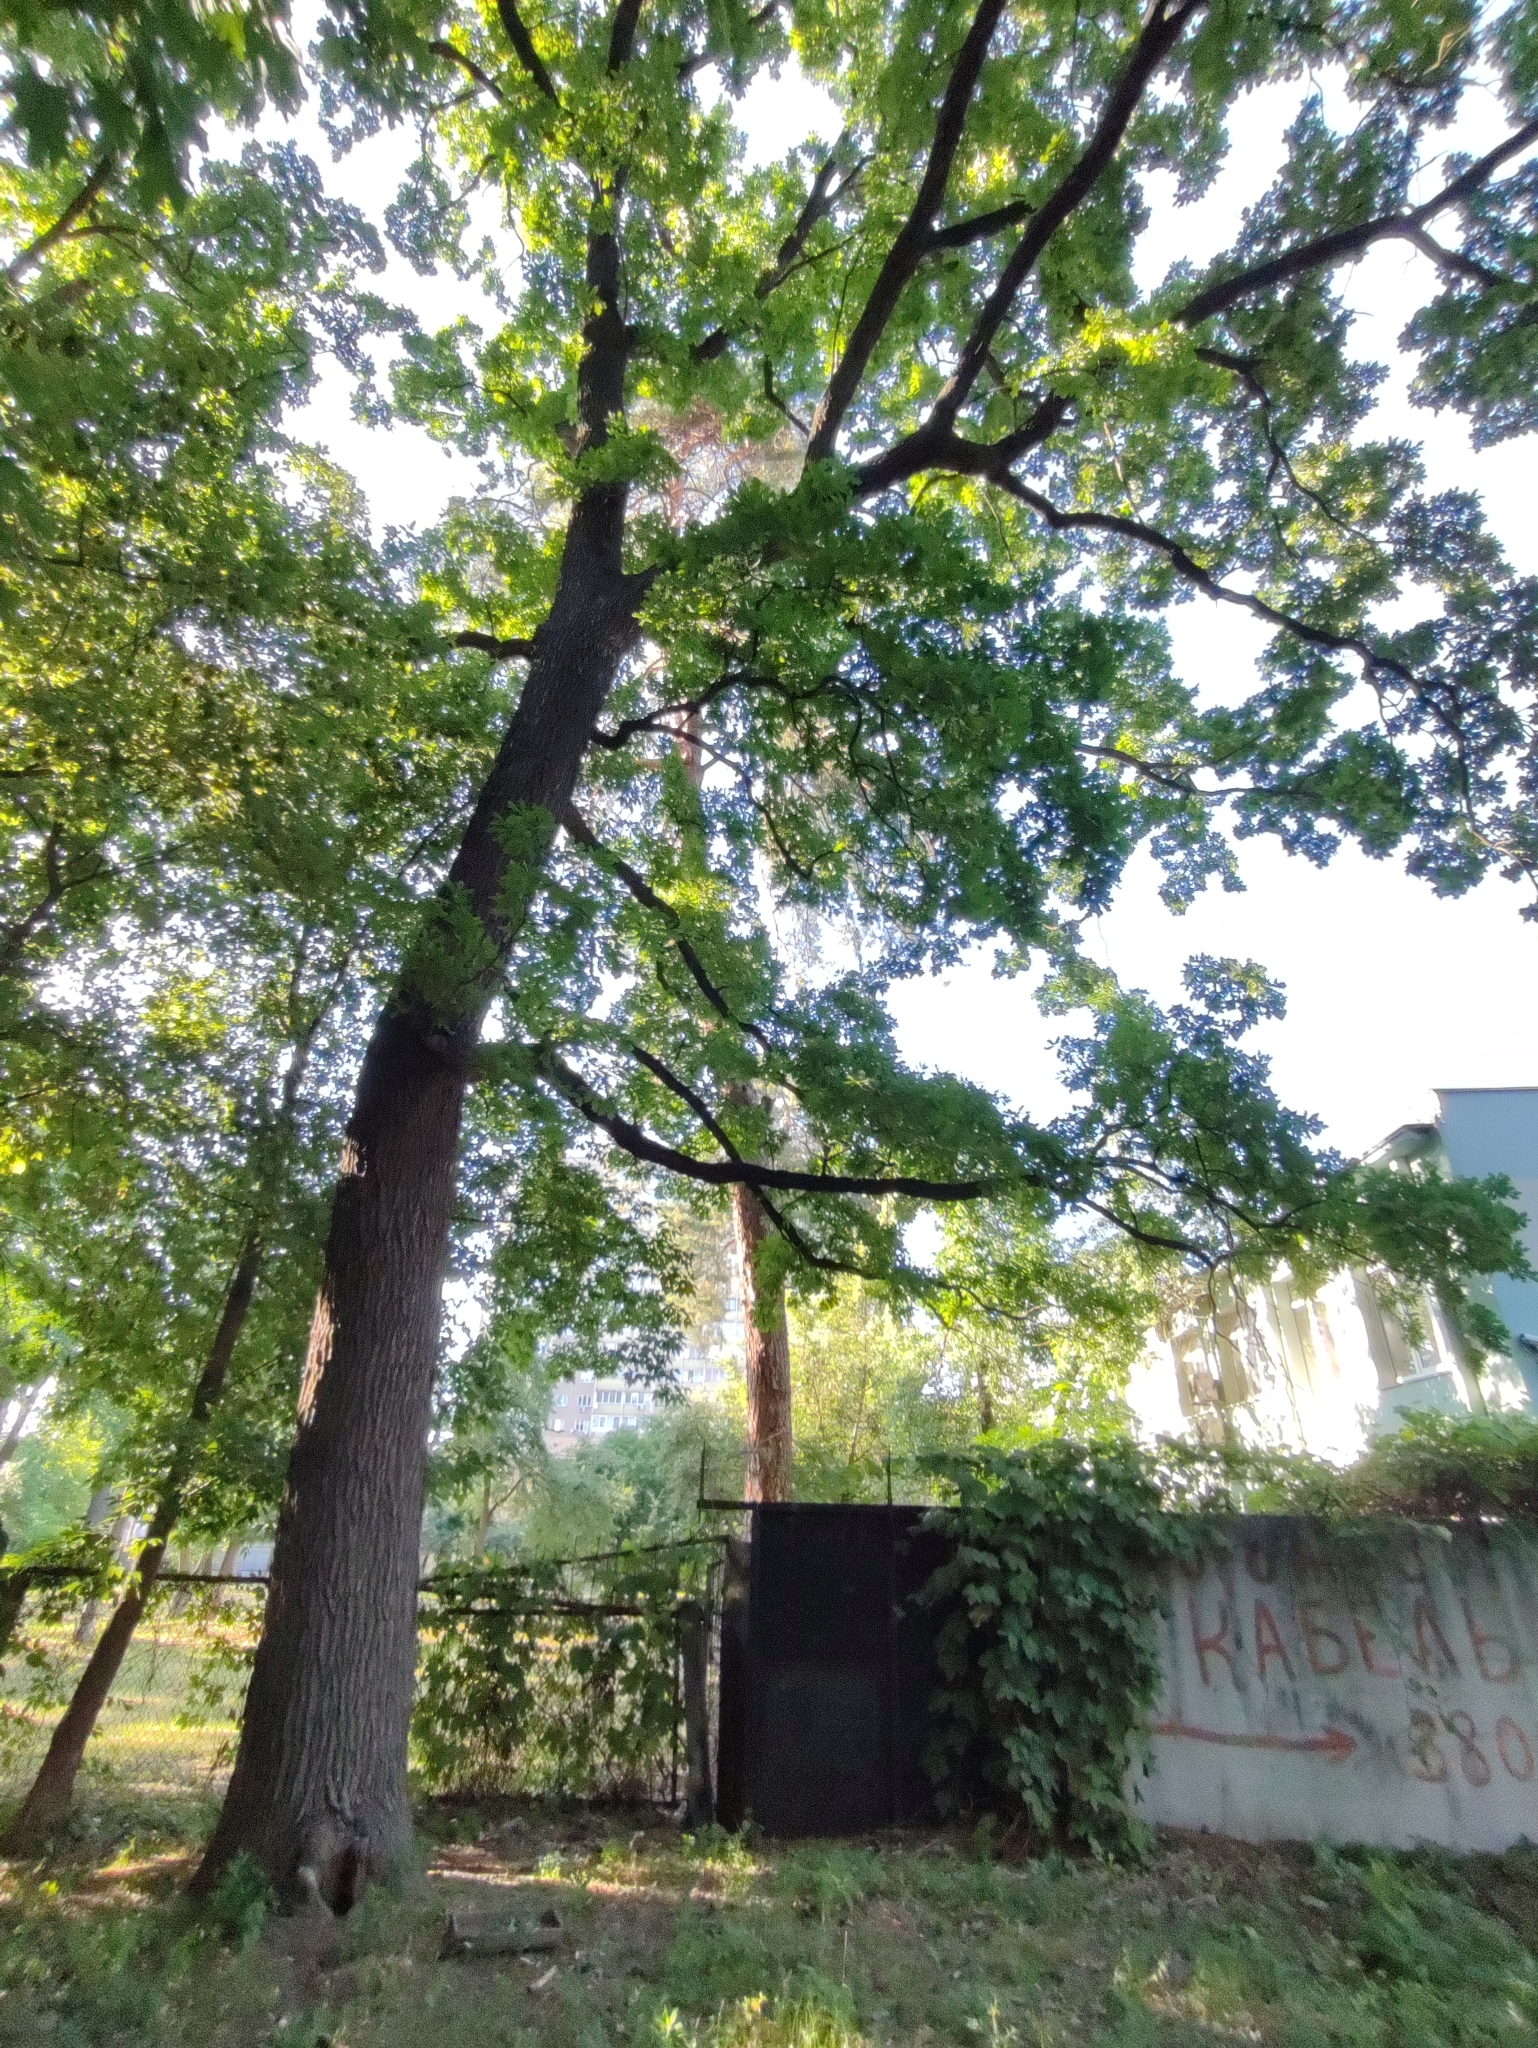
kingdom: Plantae
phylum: Tracheophyta
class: Magnoliopsida
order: Fagales
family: Fagaceae
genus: Quercus
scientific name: Quercus robur
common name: Pedunculate oak
